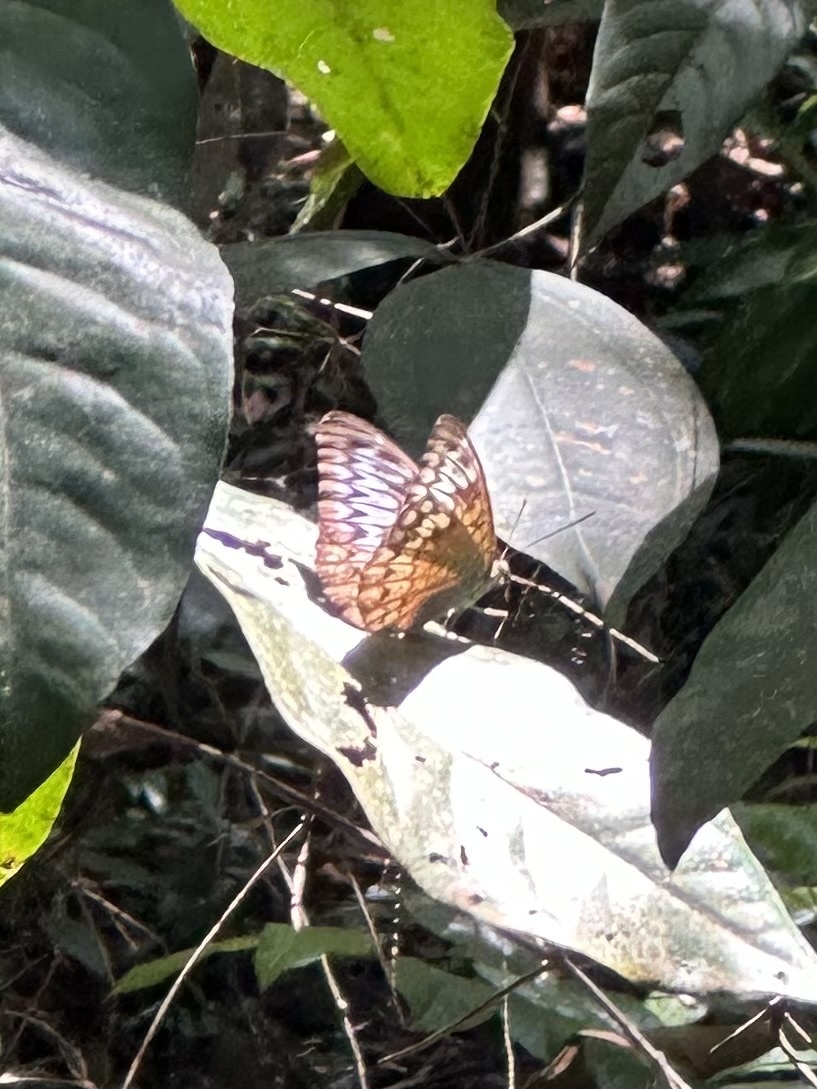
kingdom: Animalia
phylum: Arthropoda
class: Insecta
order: Lepidoptera
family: Nymphalidae
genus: Tanaecia
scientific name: Tanaecia pelea
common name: Malay viscount
